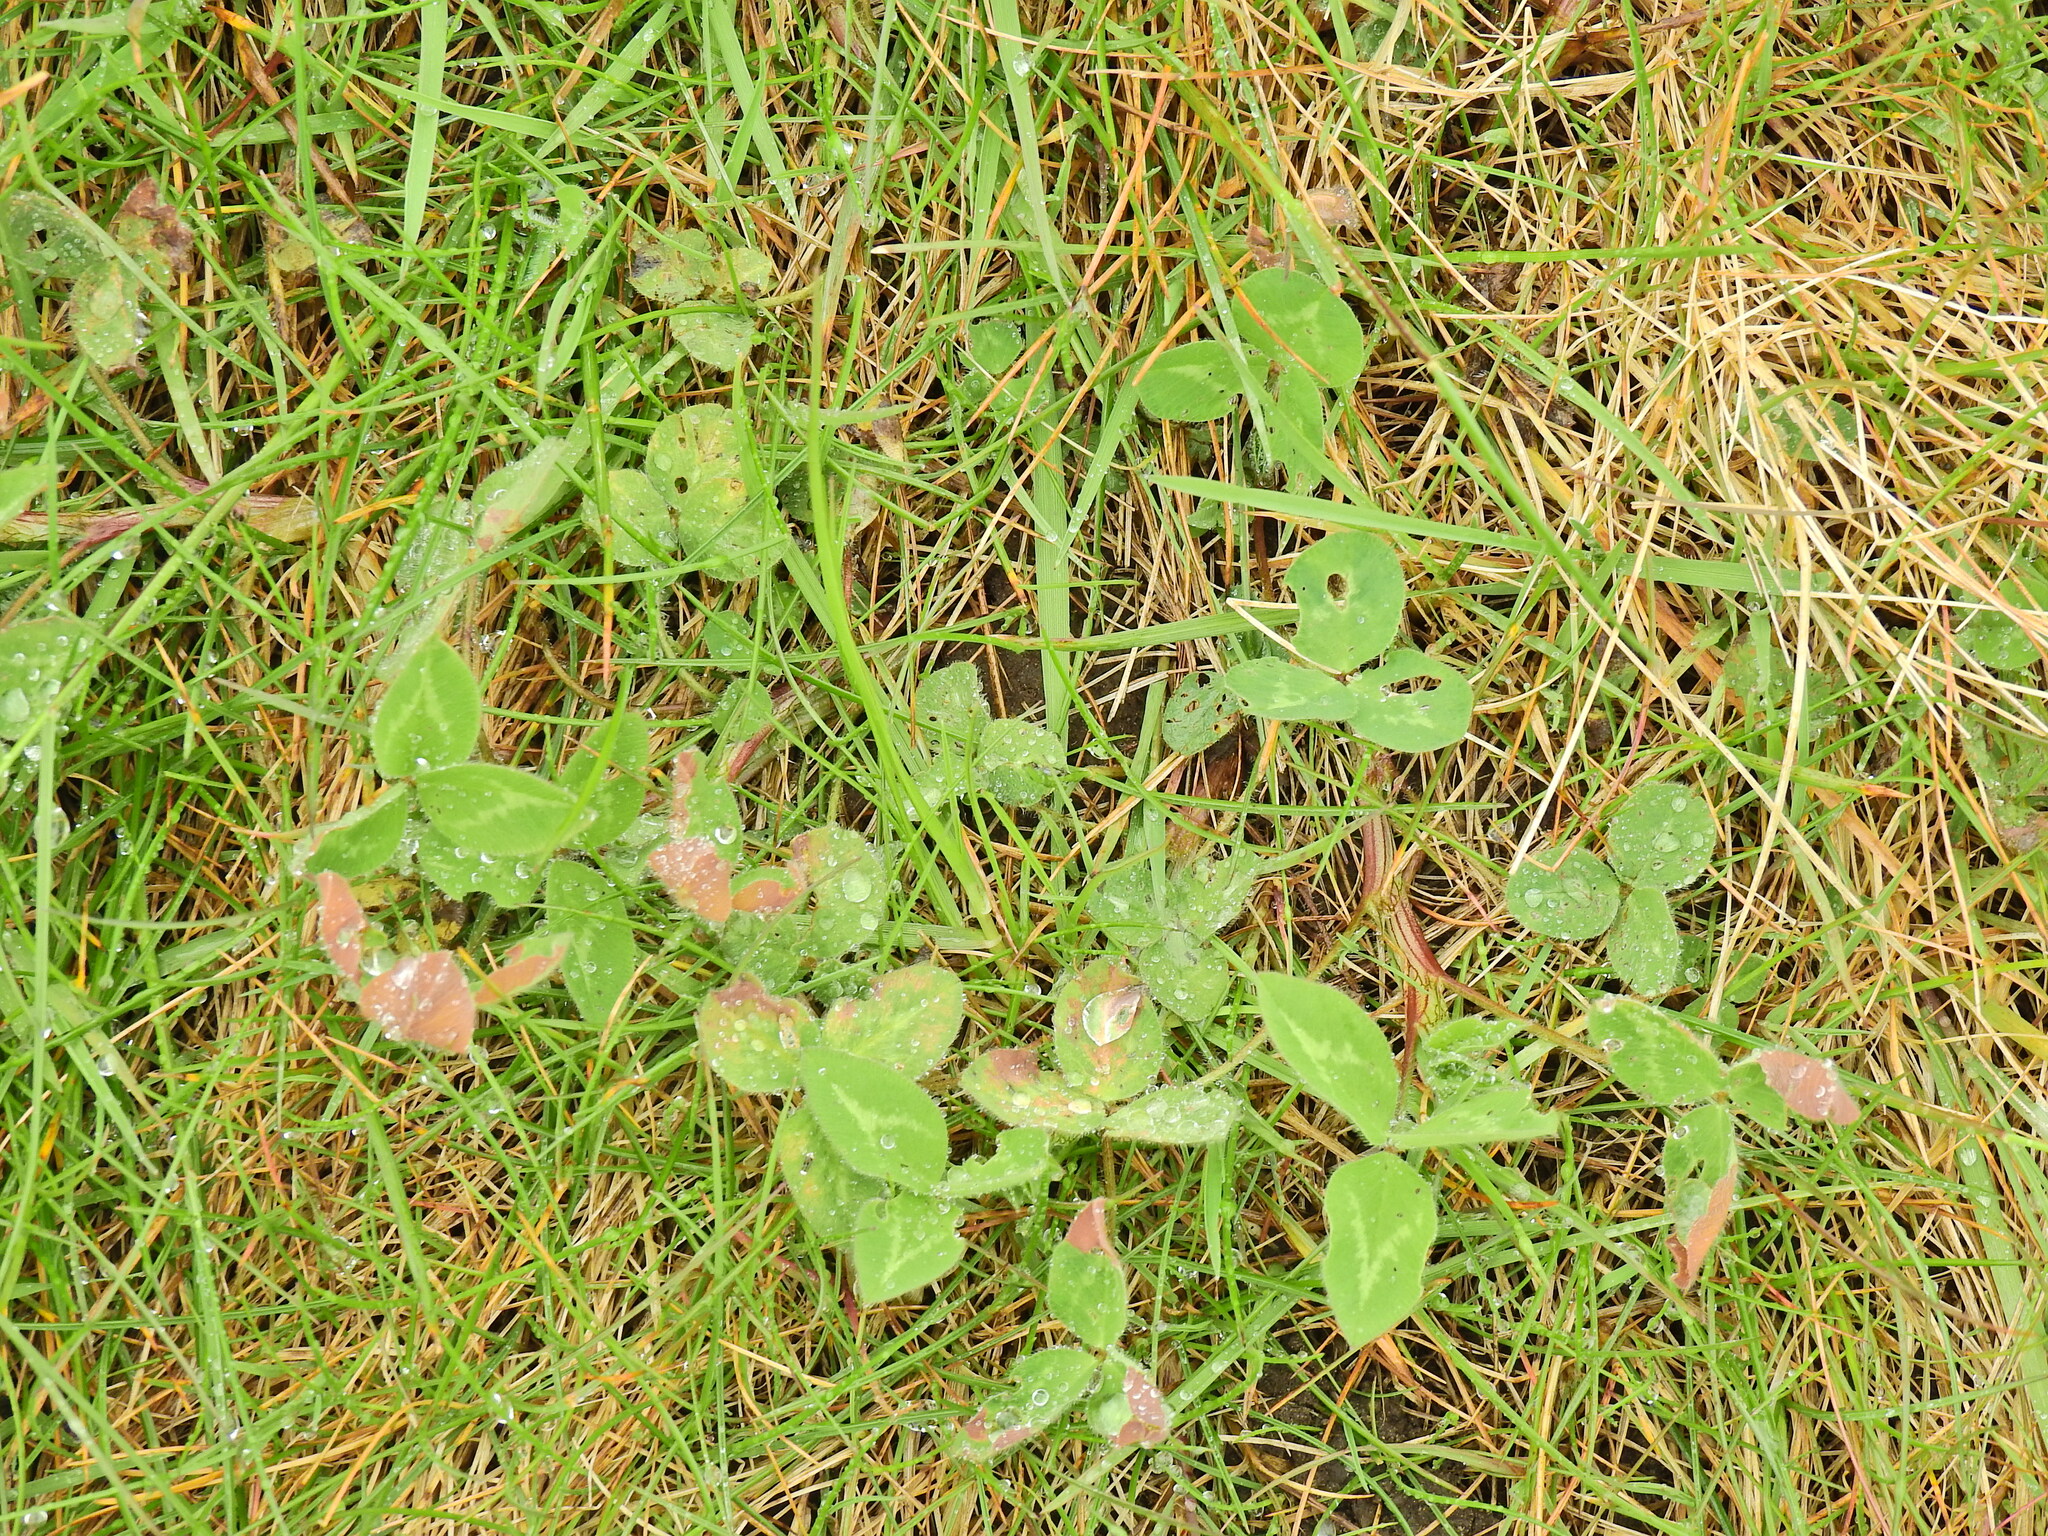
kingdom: Plantae
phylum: Tracheophyta
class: Magnoliopsida
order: Fabales
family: Fabaceae
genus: Trifolium
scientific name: Trifolium pratense
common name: Red clover
